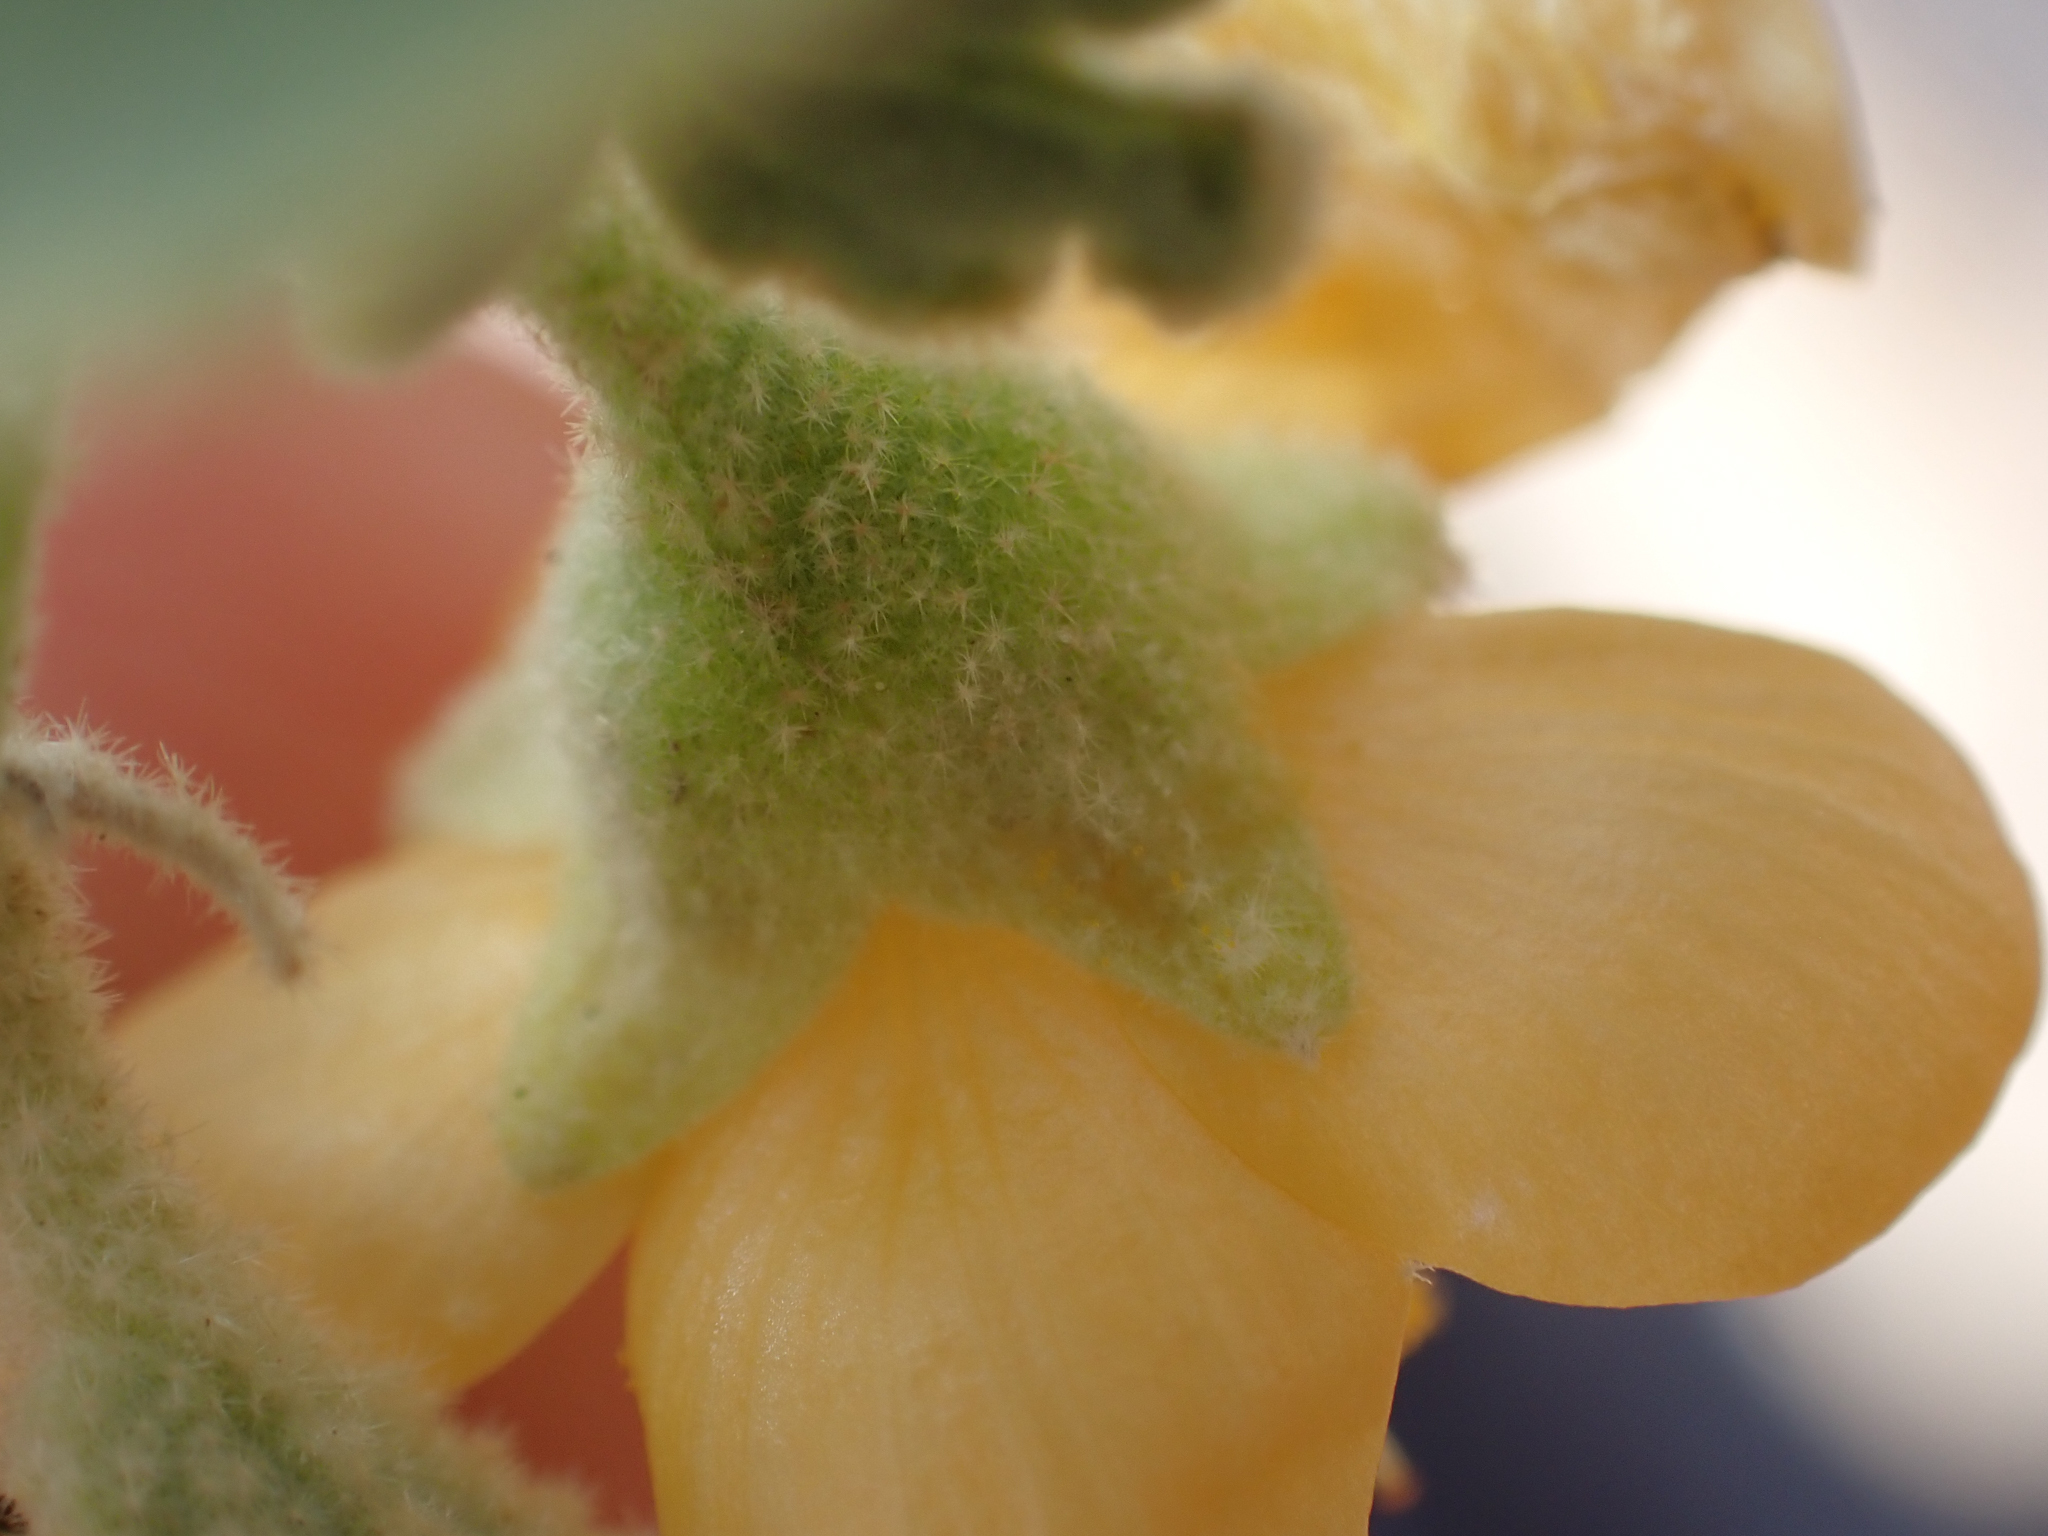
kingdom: Plantae
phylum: Tracheophyta
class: Magnoliopsida
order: Malvales
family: Malvaceae
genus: Horsfordia
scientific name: Horsfordia newberryi
